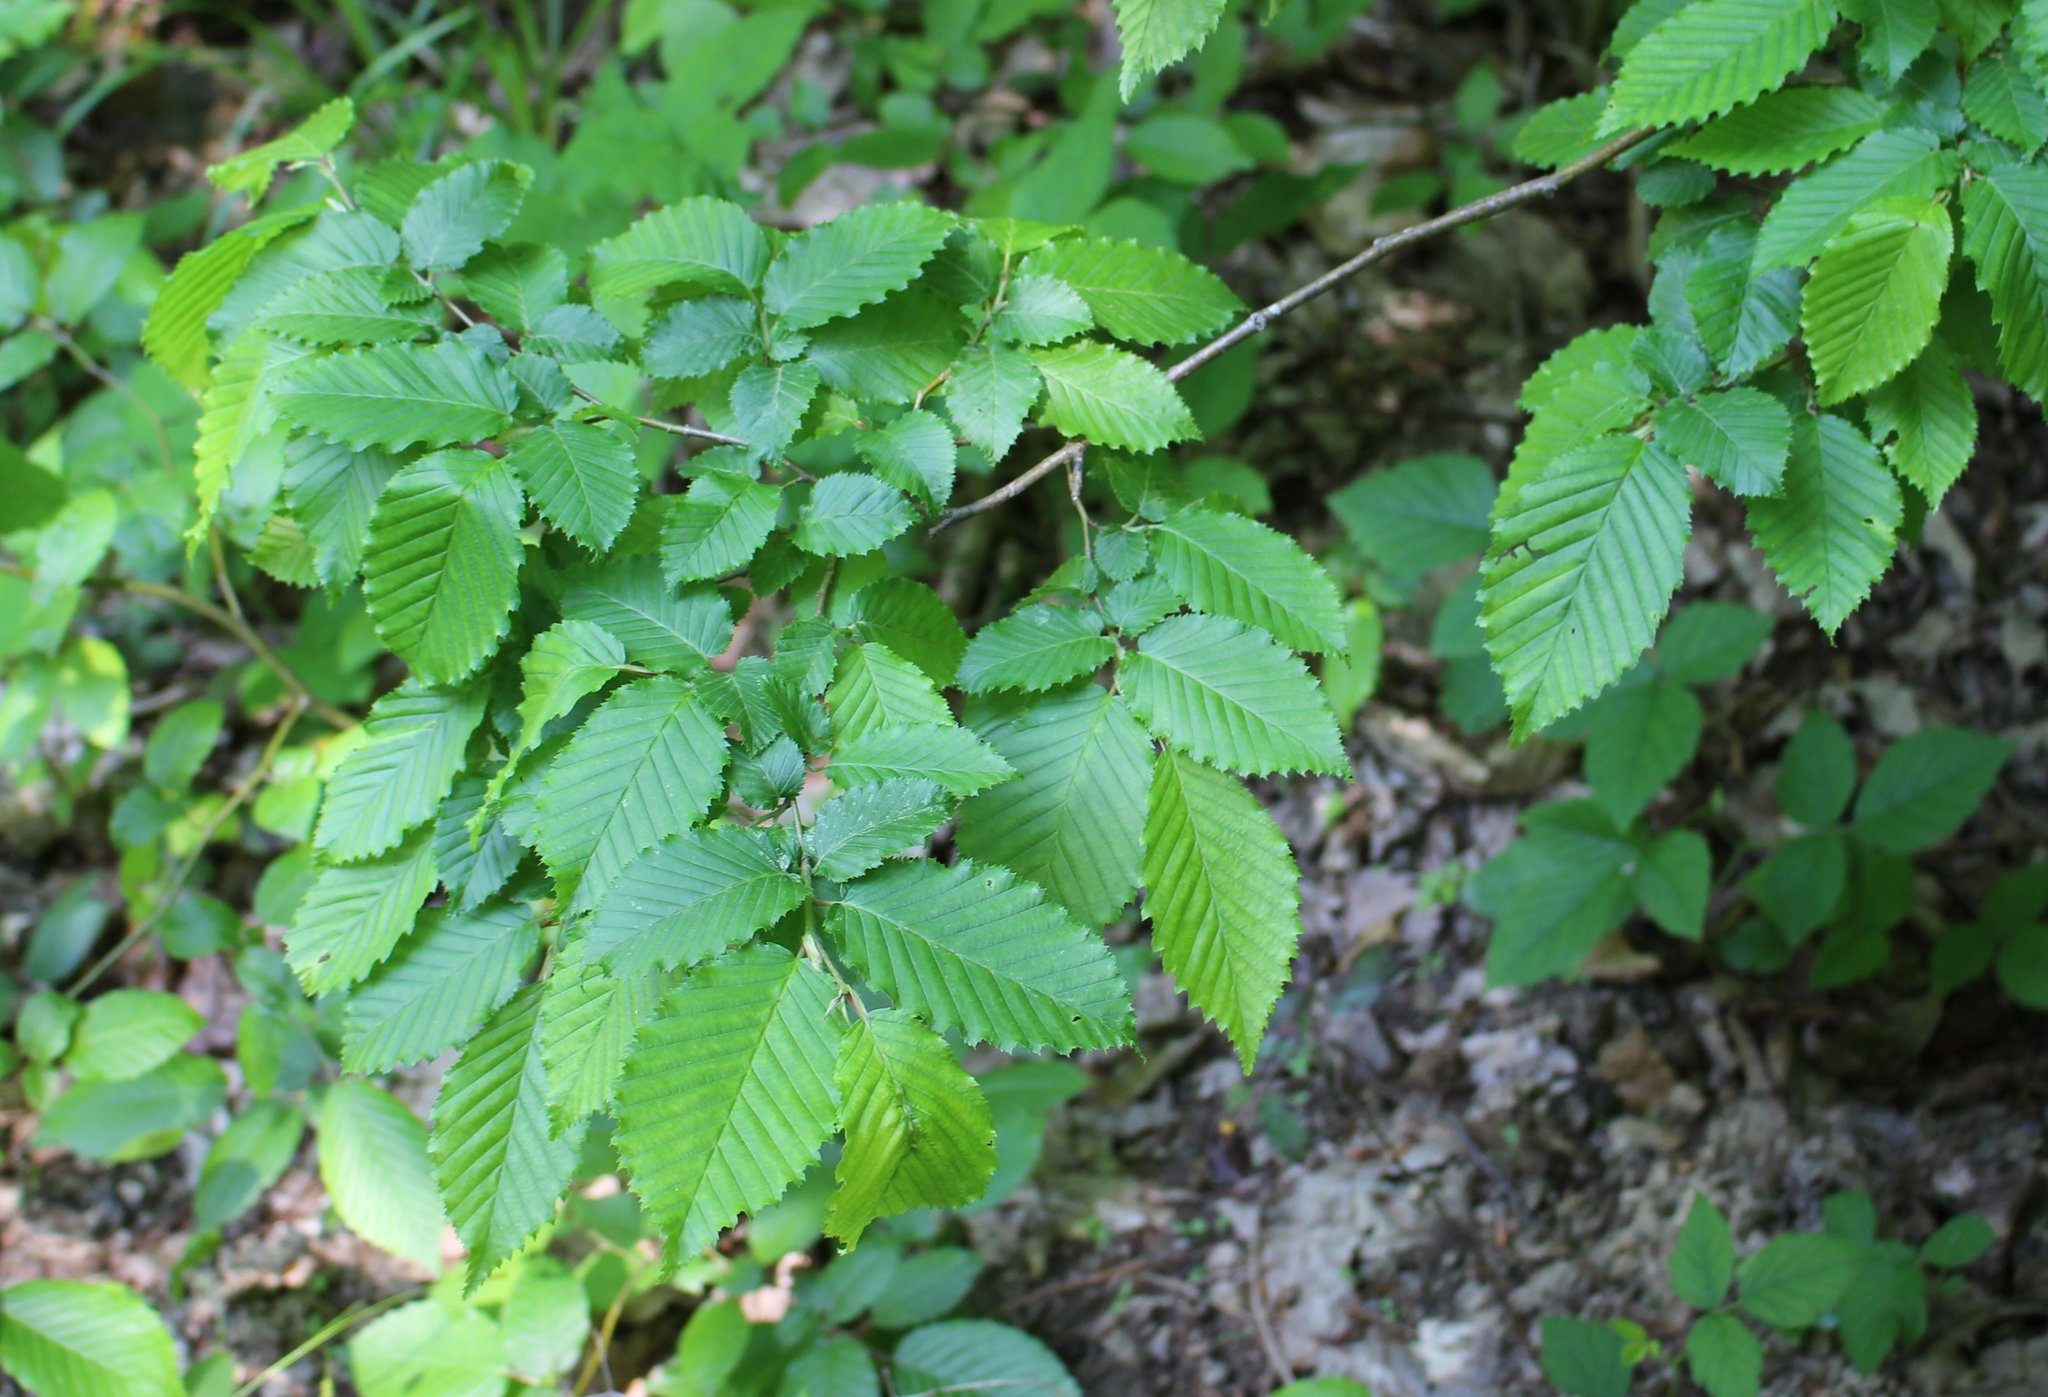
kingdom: Plantae
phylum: Tracheophyta
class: Magnoliopsida
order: Fagales
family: Betulaceae
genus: Carpinus
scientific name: Carpinus orientalis
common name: Eastern hornbeam
